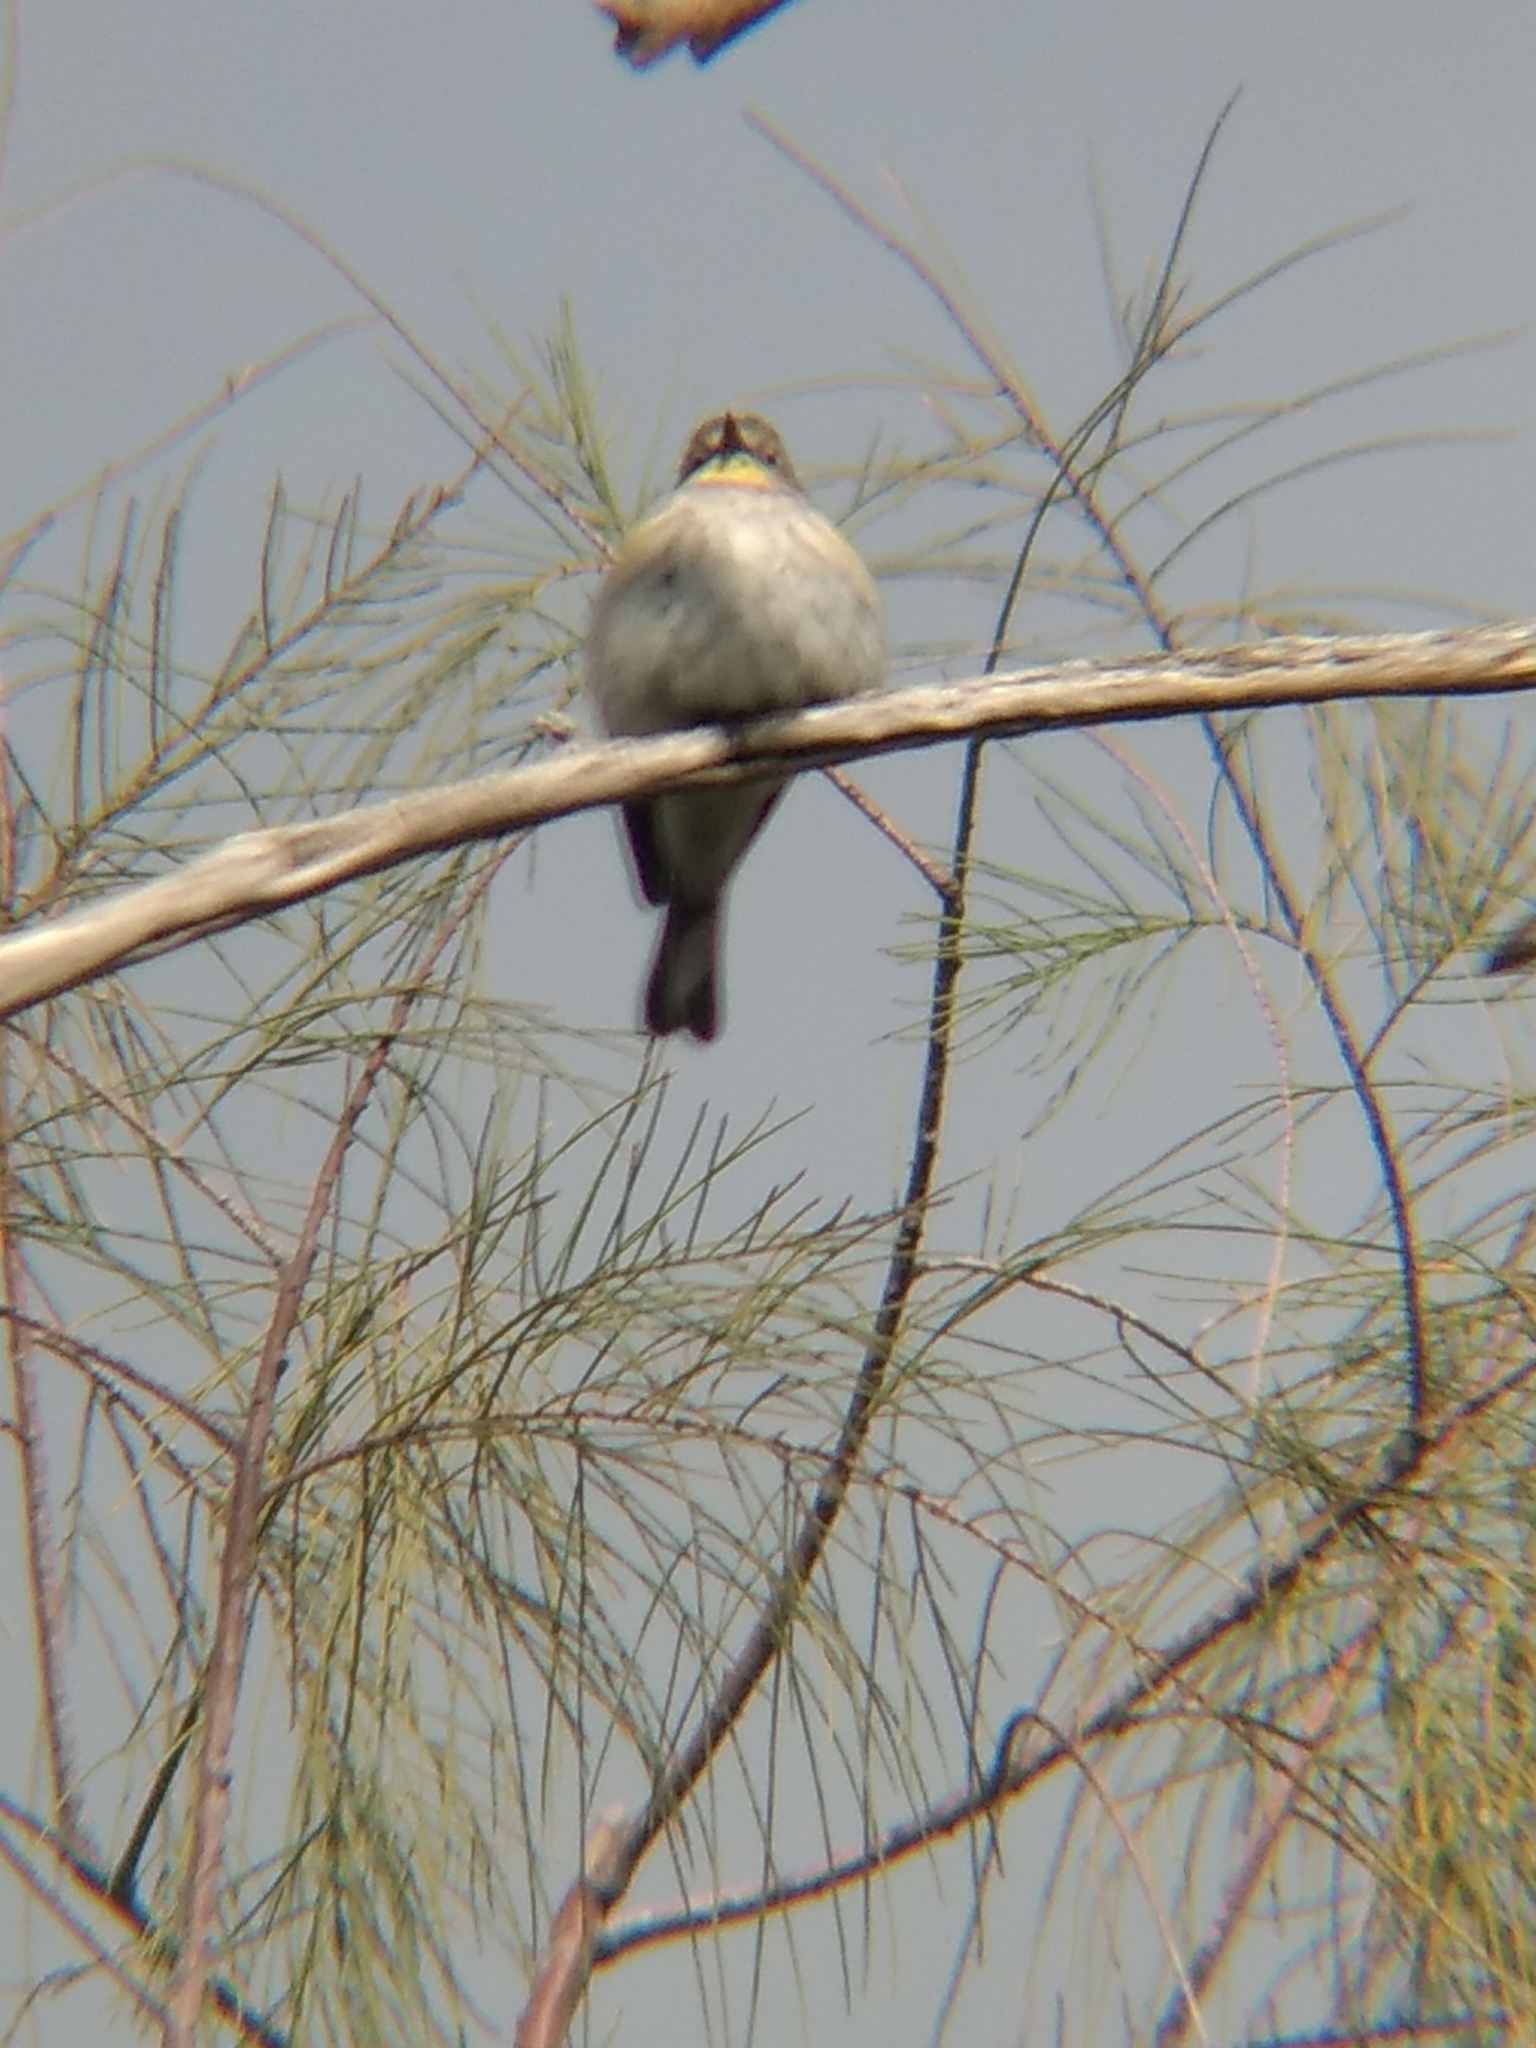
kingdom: Animalia
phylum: Chordata
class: Aves
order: Passeriformes
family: Parulidae
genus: Setophaga
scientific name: Setophaga coronata
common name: Myrtle warbler
